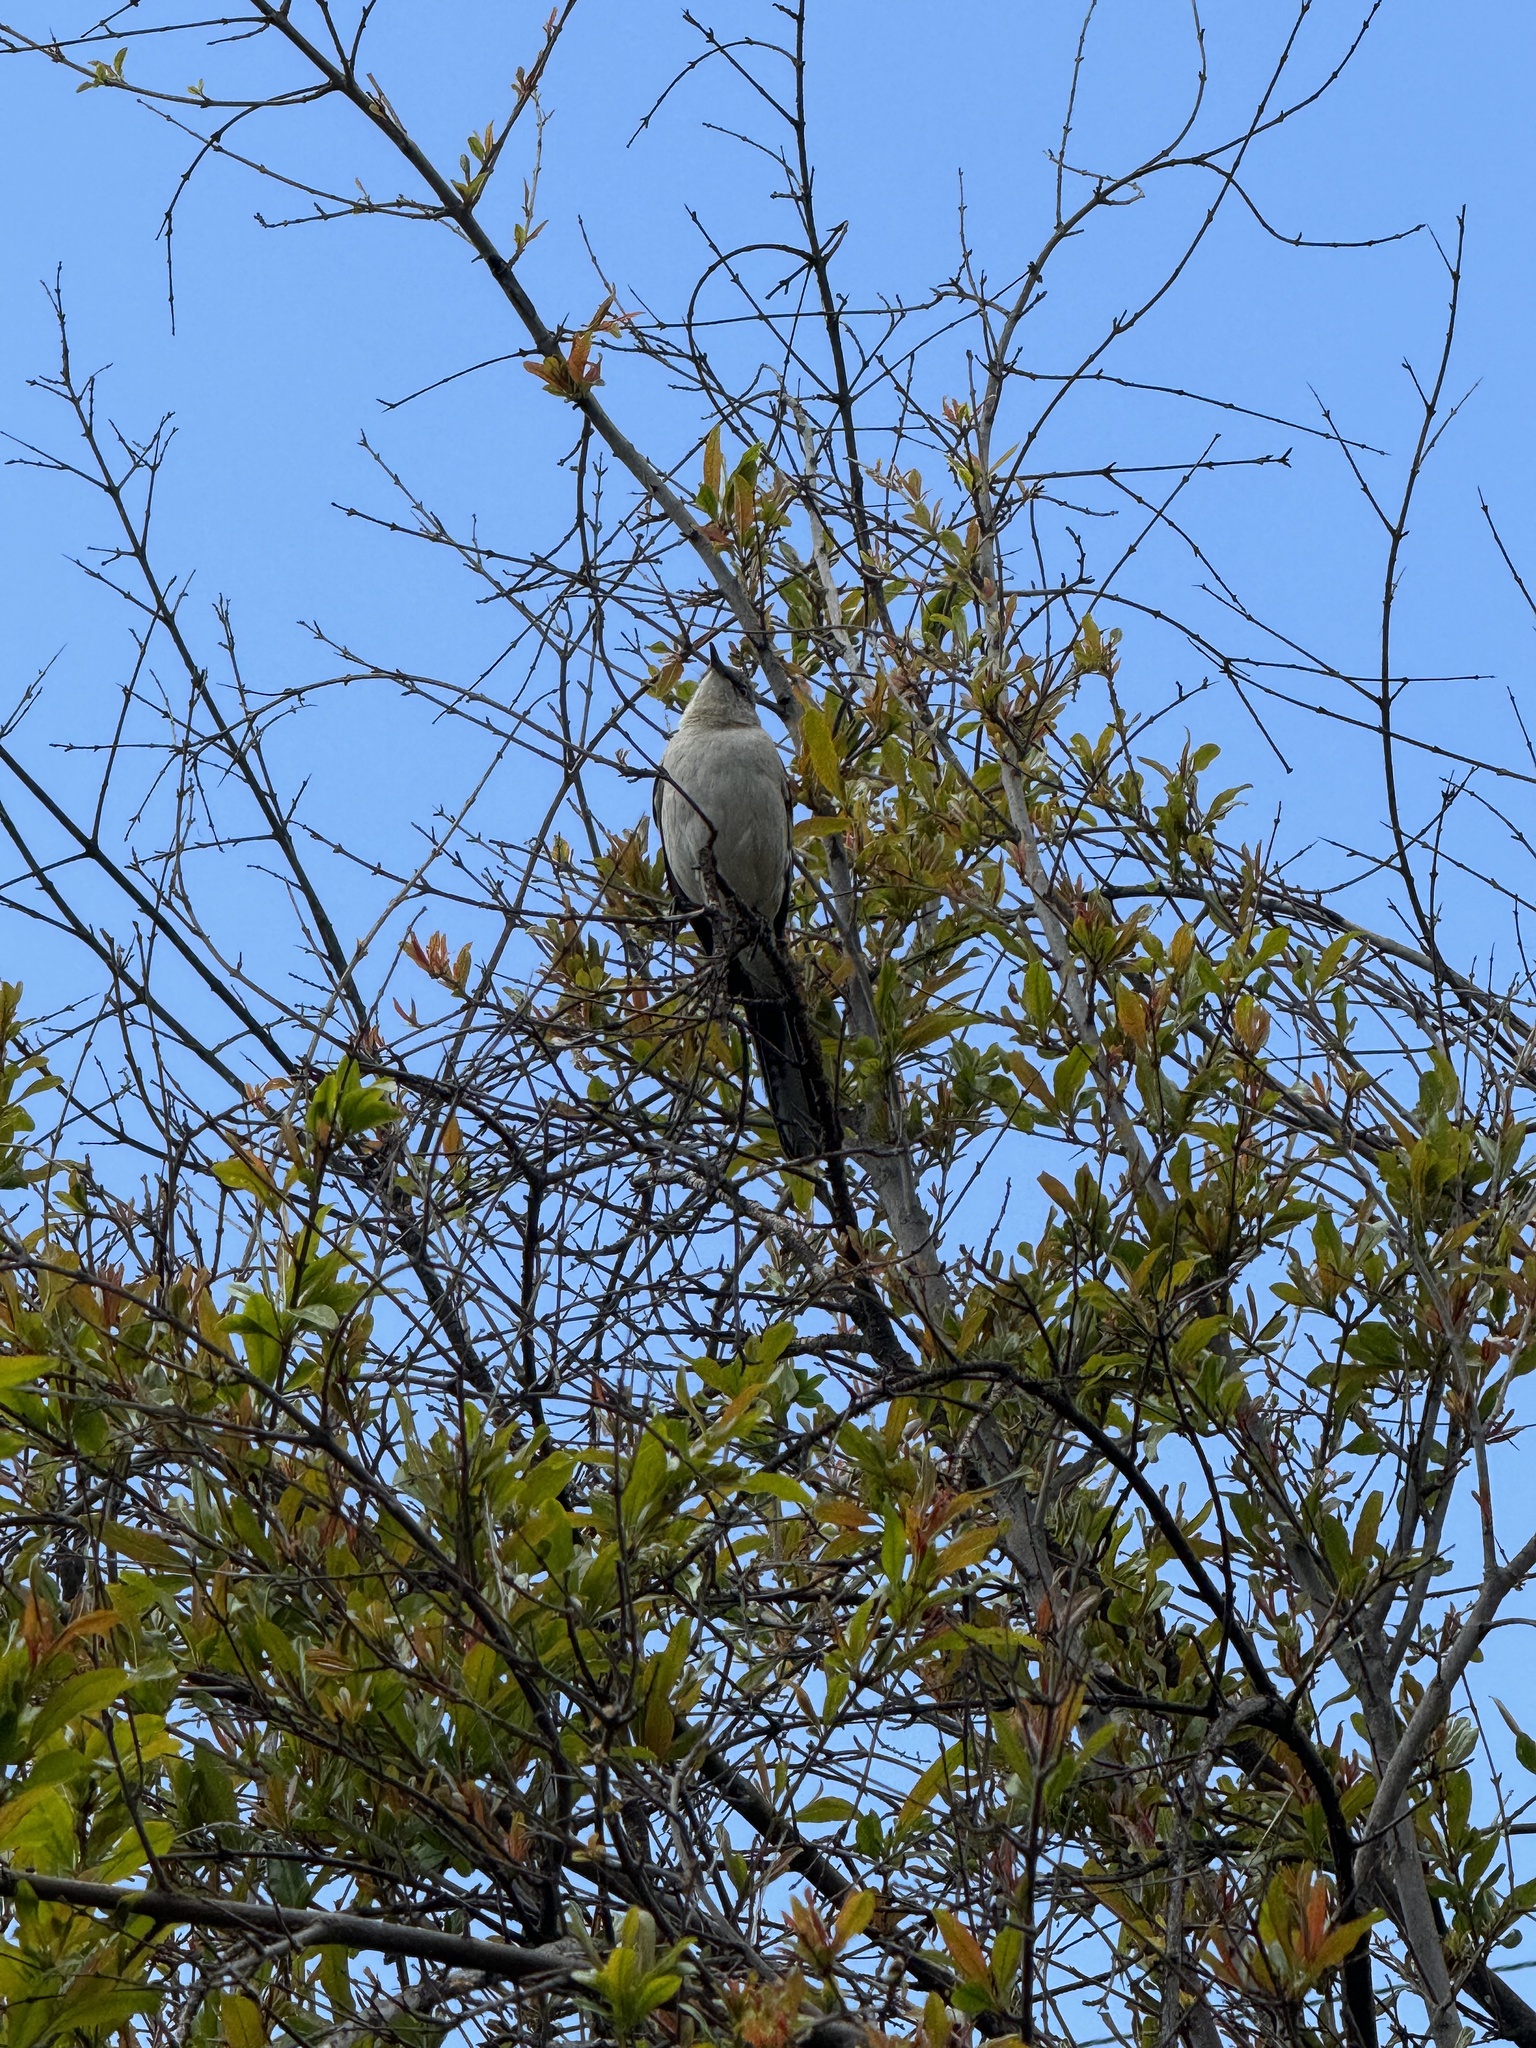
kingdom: Animalia
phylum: Chordata
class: Aves
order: Passeriformes
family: Mimidae
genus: Mimus
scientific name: Mimus polyglottos
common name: Northern mockingbird
